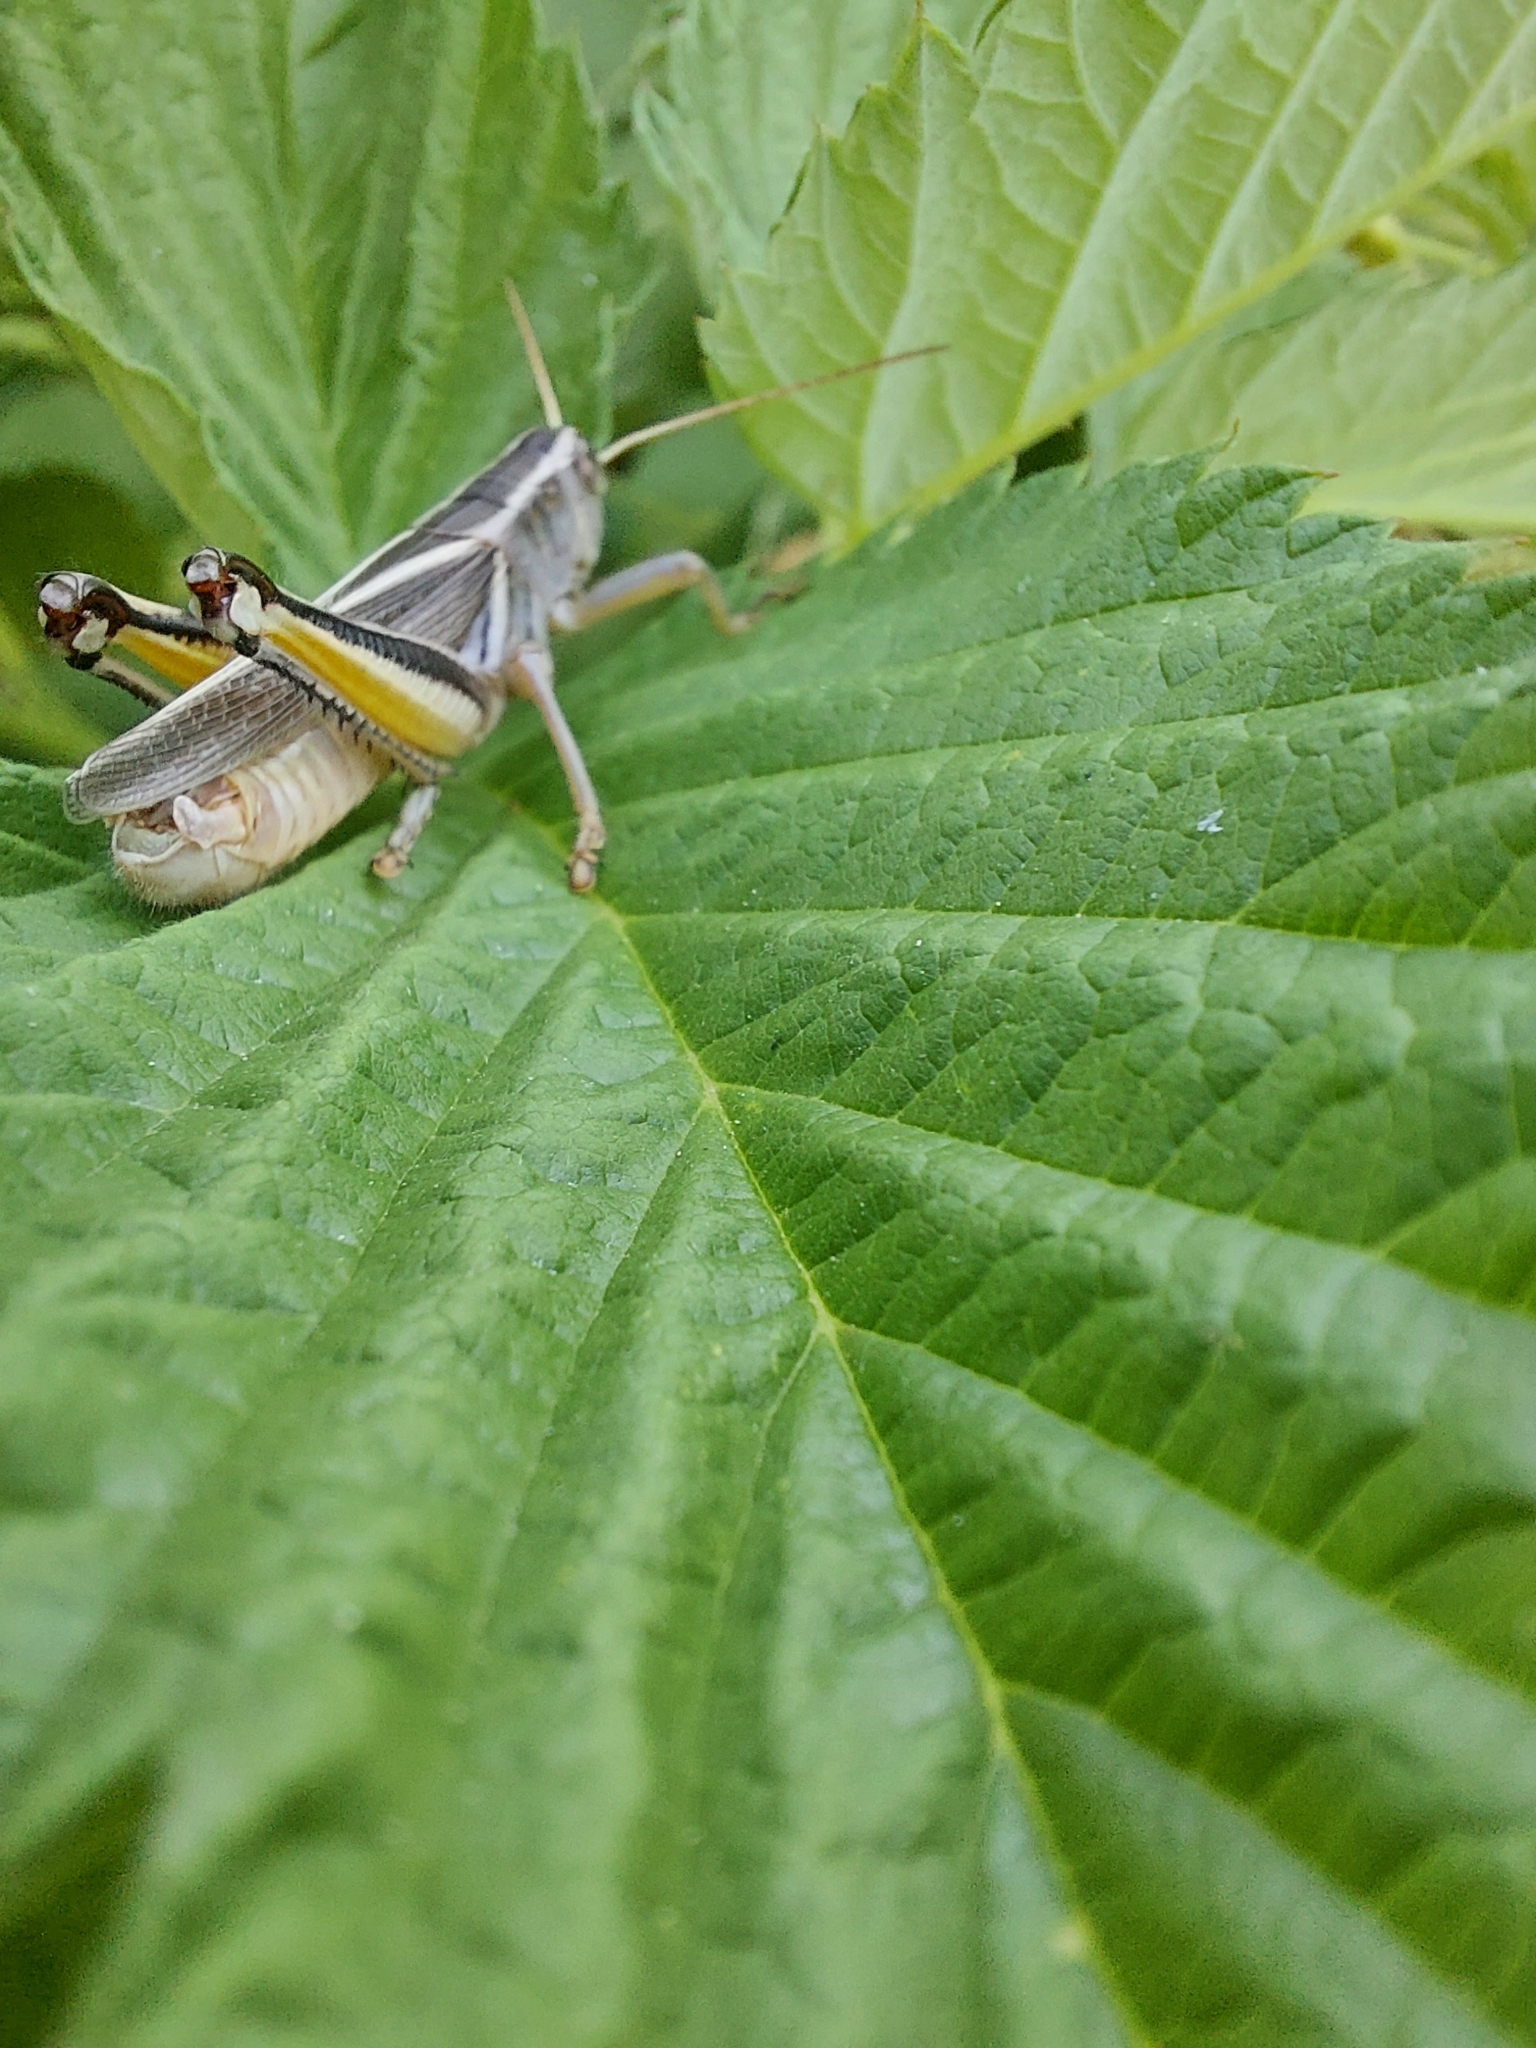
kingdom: Animalia
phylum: Arthropoda
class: Insecta
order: Orthoptera
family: Acrididae
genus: Melanoplus
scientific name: Melanoplus bivittatus
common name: Two-striped grasshopper
